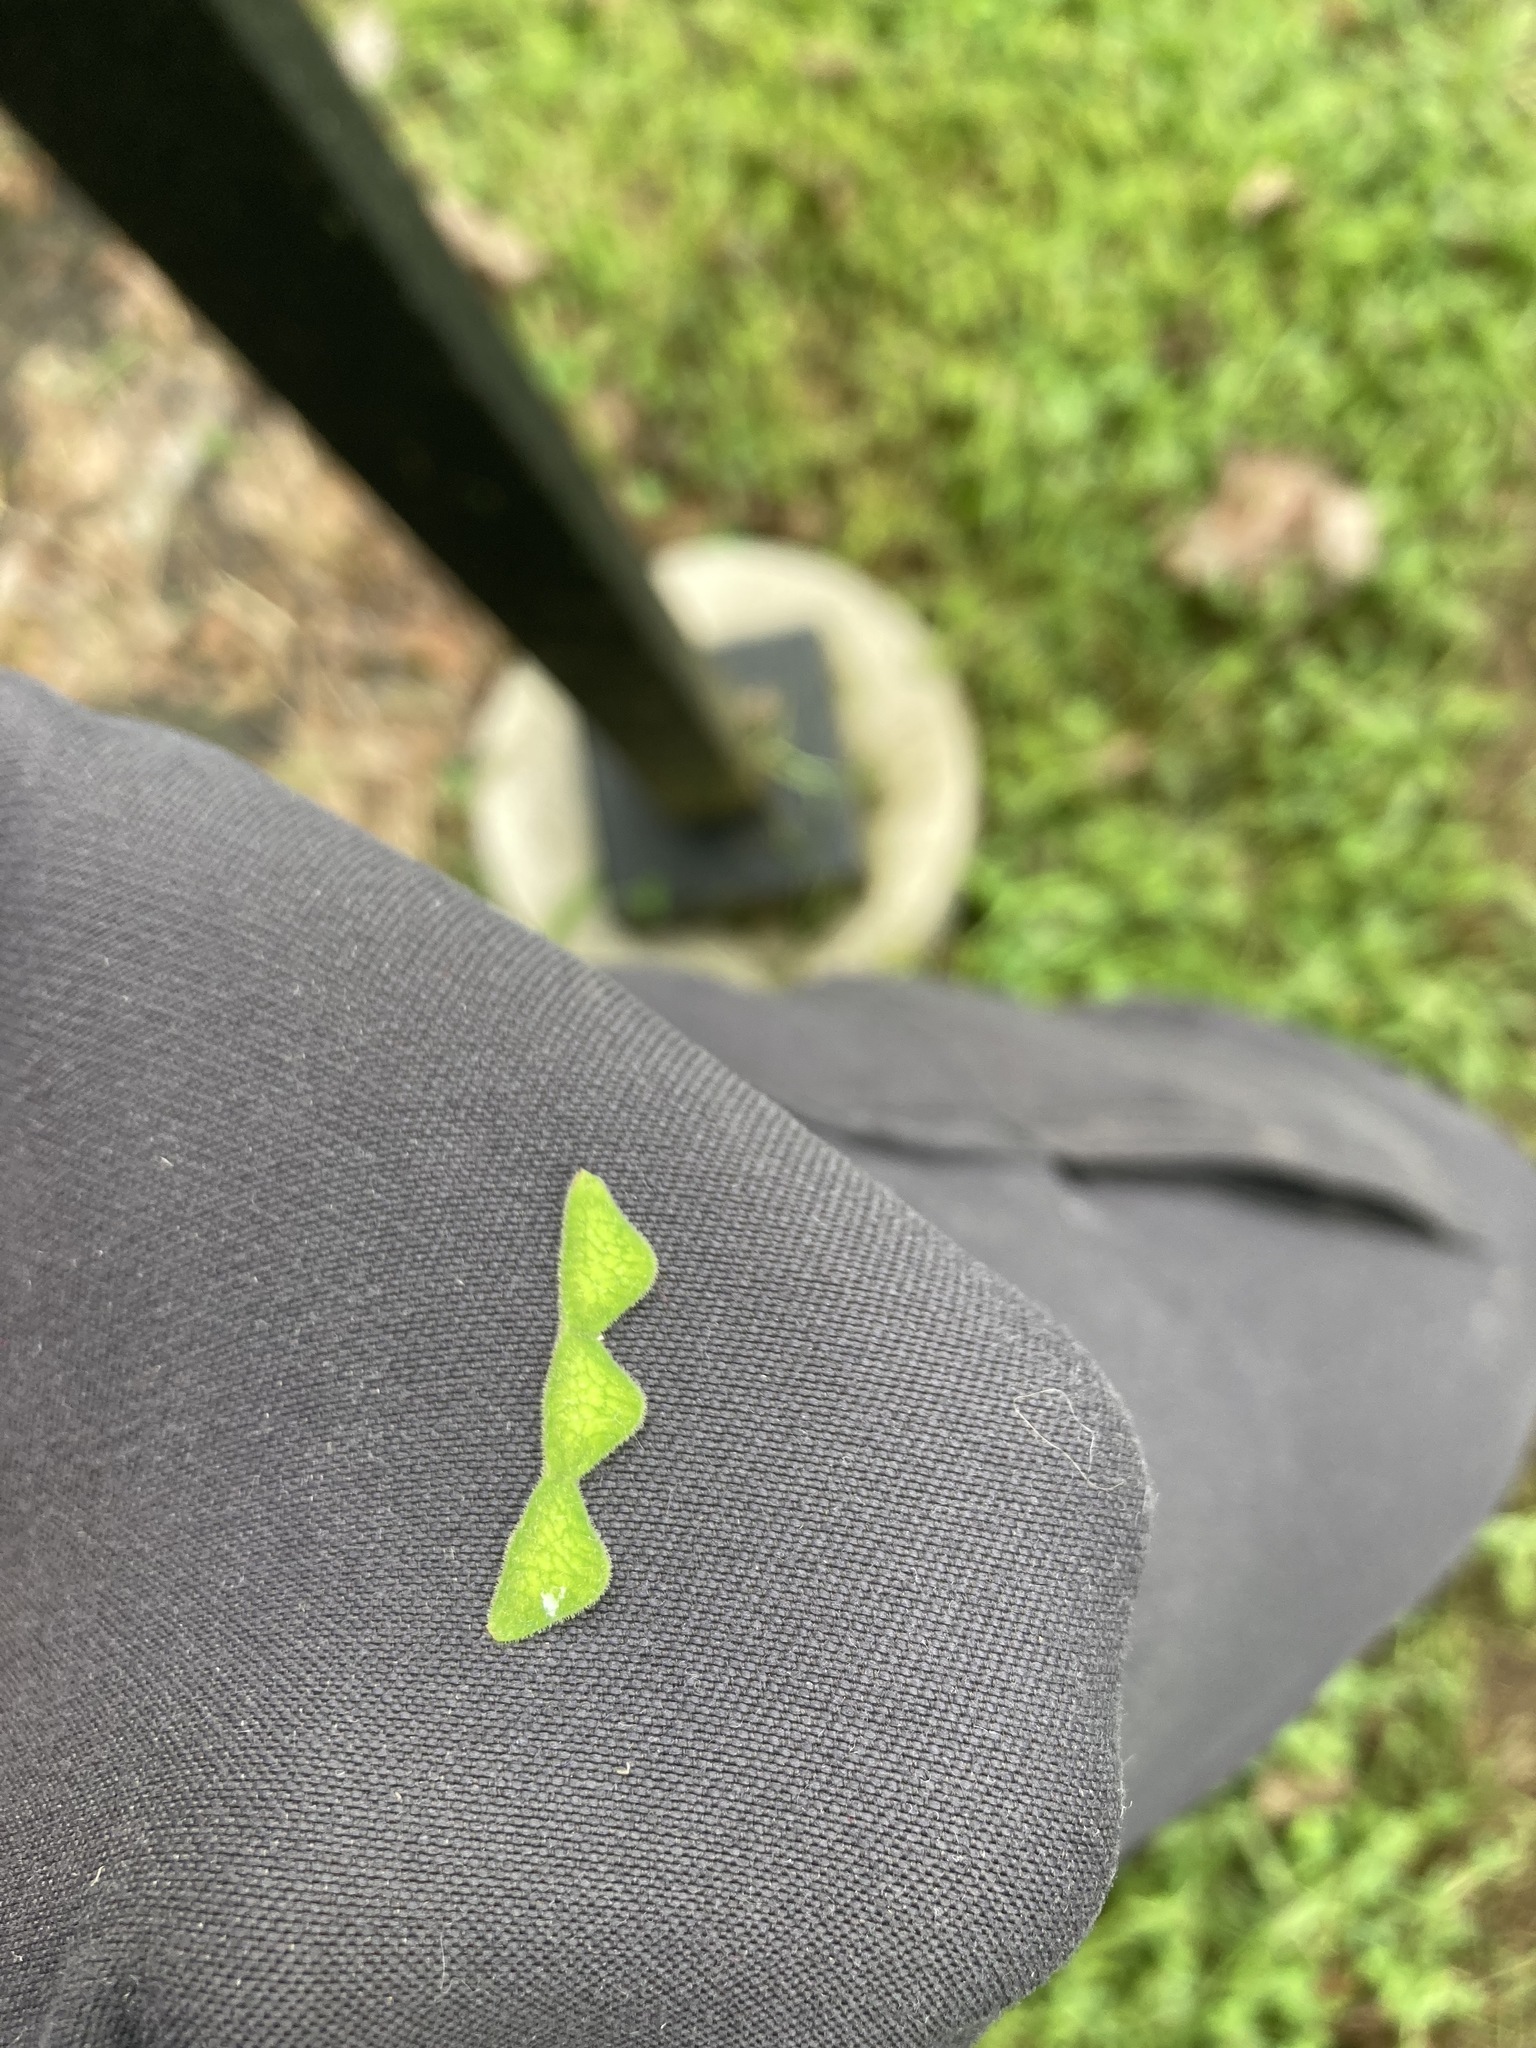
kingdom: Plantae
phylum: Tracheophyta
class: Magnoliopsida
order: Fabales
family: Fabaceae
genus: Desmodium
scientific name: Desmodium glabellum
